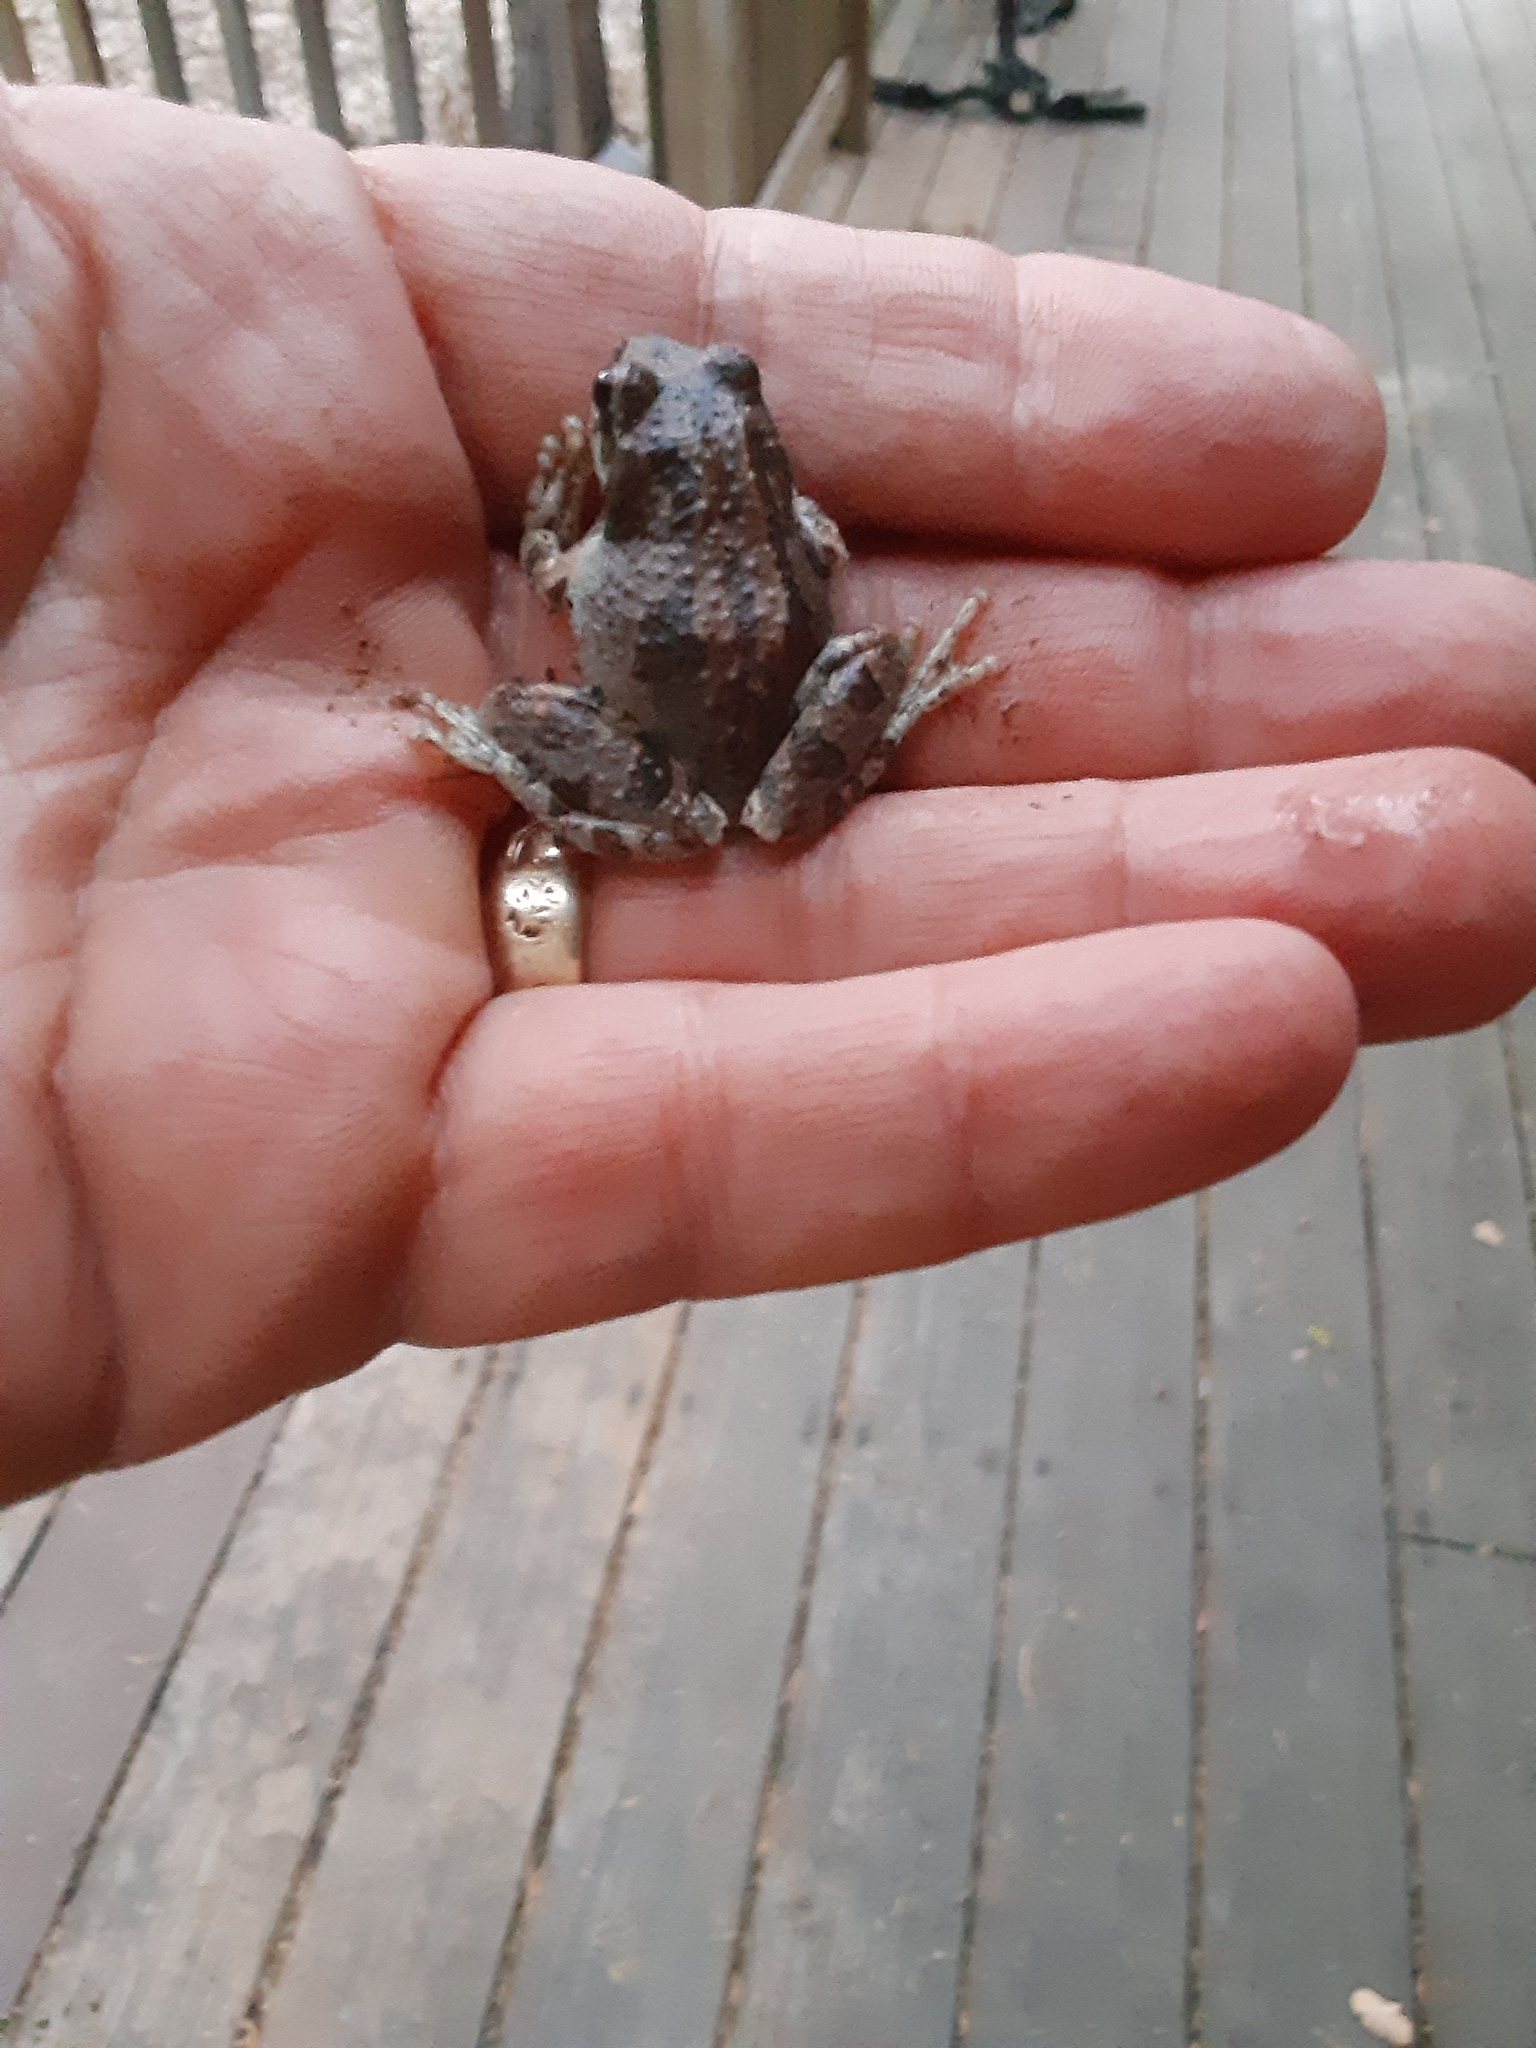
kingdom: Animalia
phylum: Chordata
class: Amphibia
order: Anura
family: Hylidae
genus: Pseudacris
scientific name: Pseudacris regilla
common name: Pacific chorus frog
